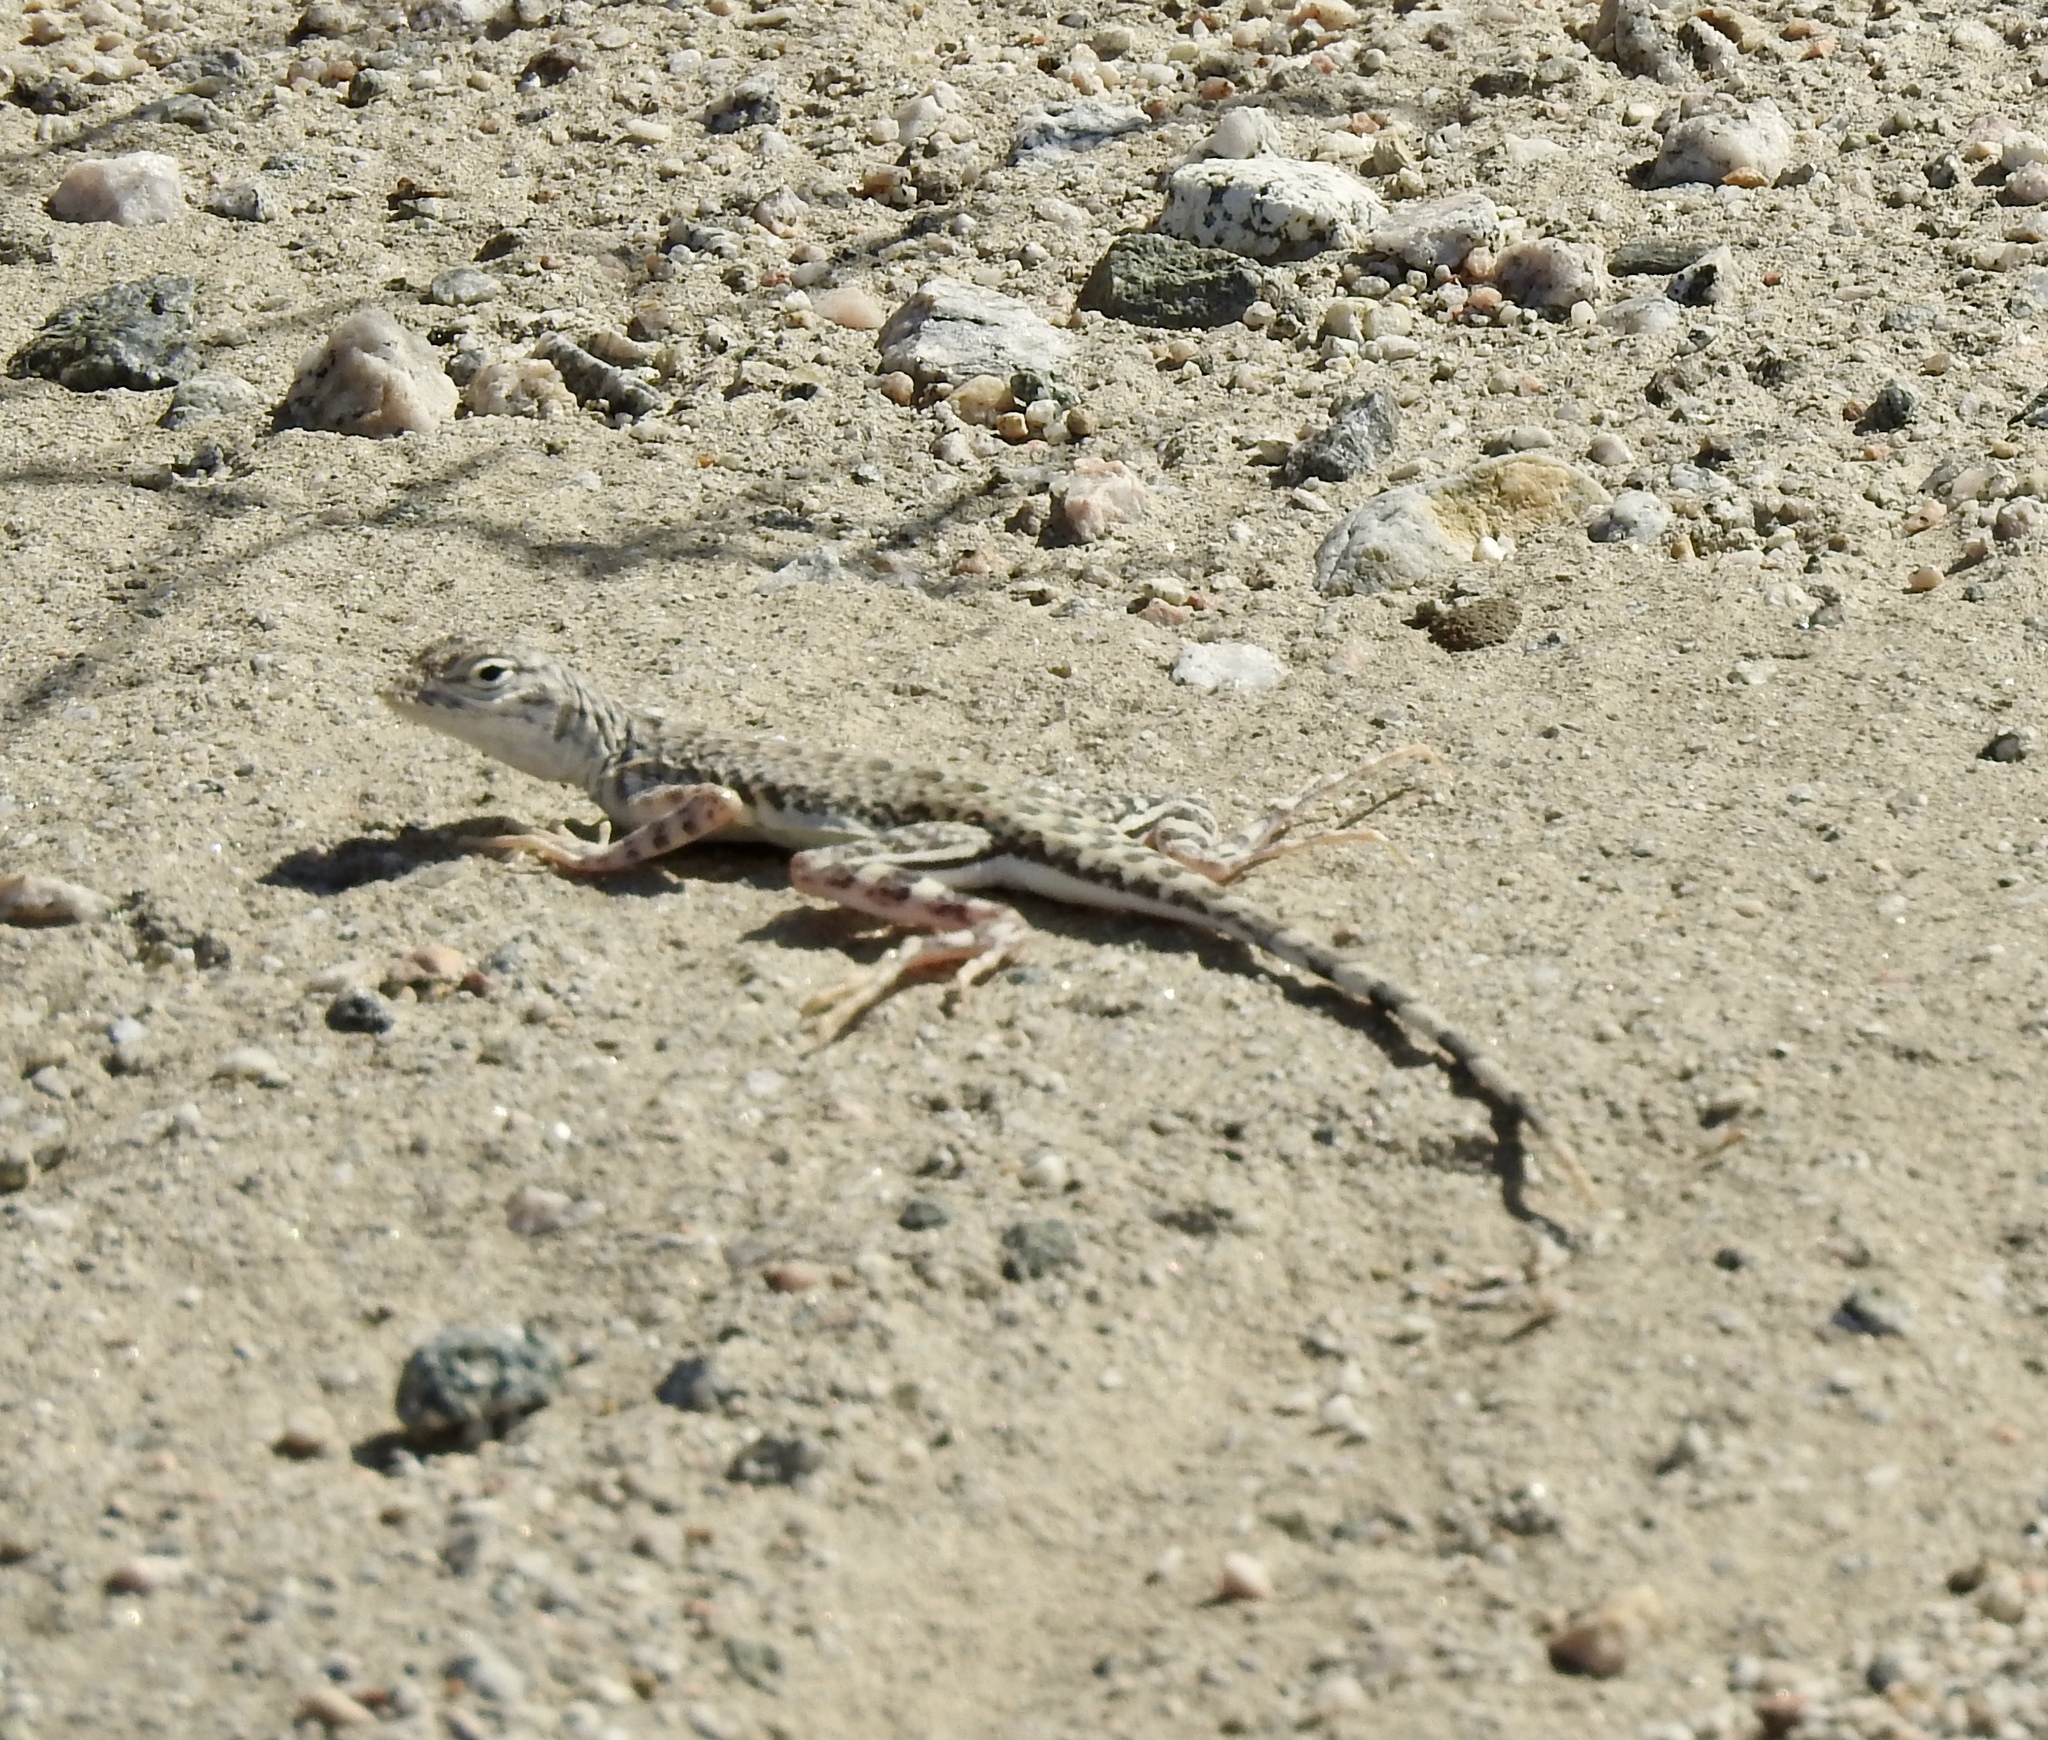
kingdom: Animalia
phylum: Chordata
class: Squamata
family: Phrynosomatidae
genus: Callisaurus
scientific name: Callisaurus draconoides
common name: Zebra-tailed lizard
